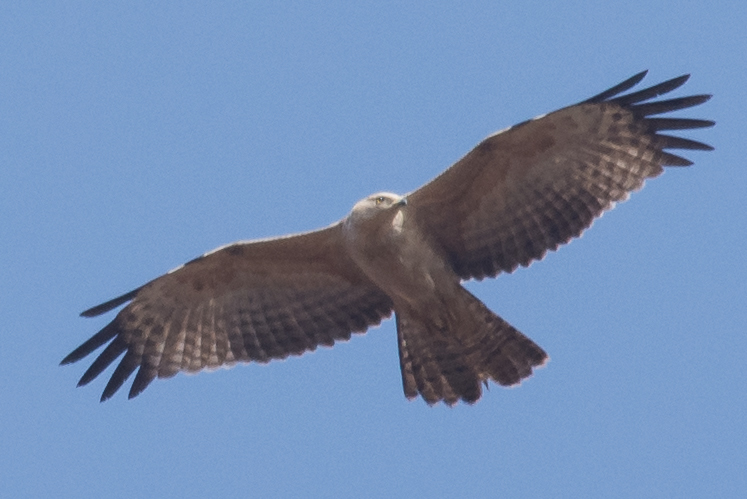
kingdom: Animalia
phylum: Chordata
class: Aves
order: Accipitriformes
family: Accipitridae
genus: Pernis
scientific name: Pernis ptilorhynchus
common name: Crested honey buzzard
